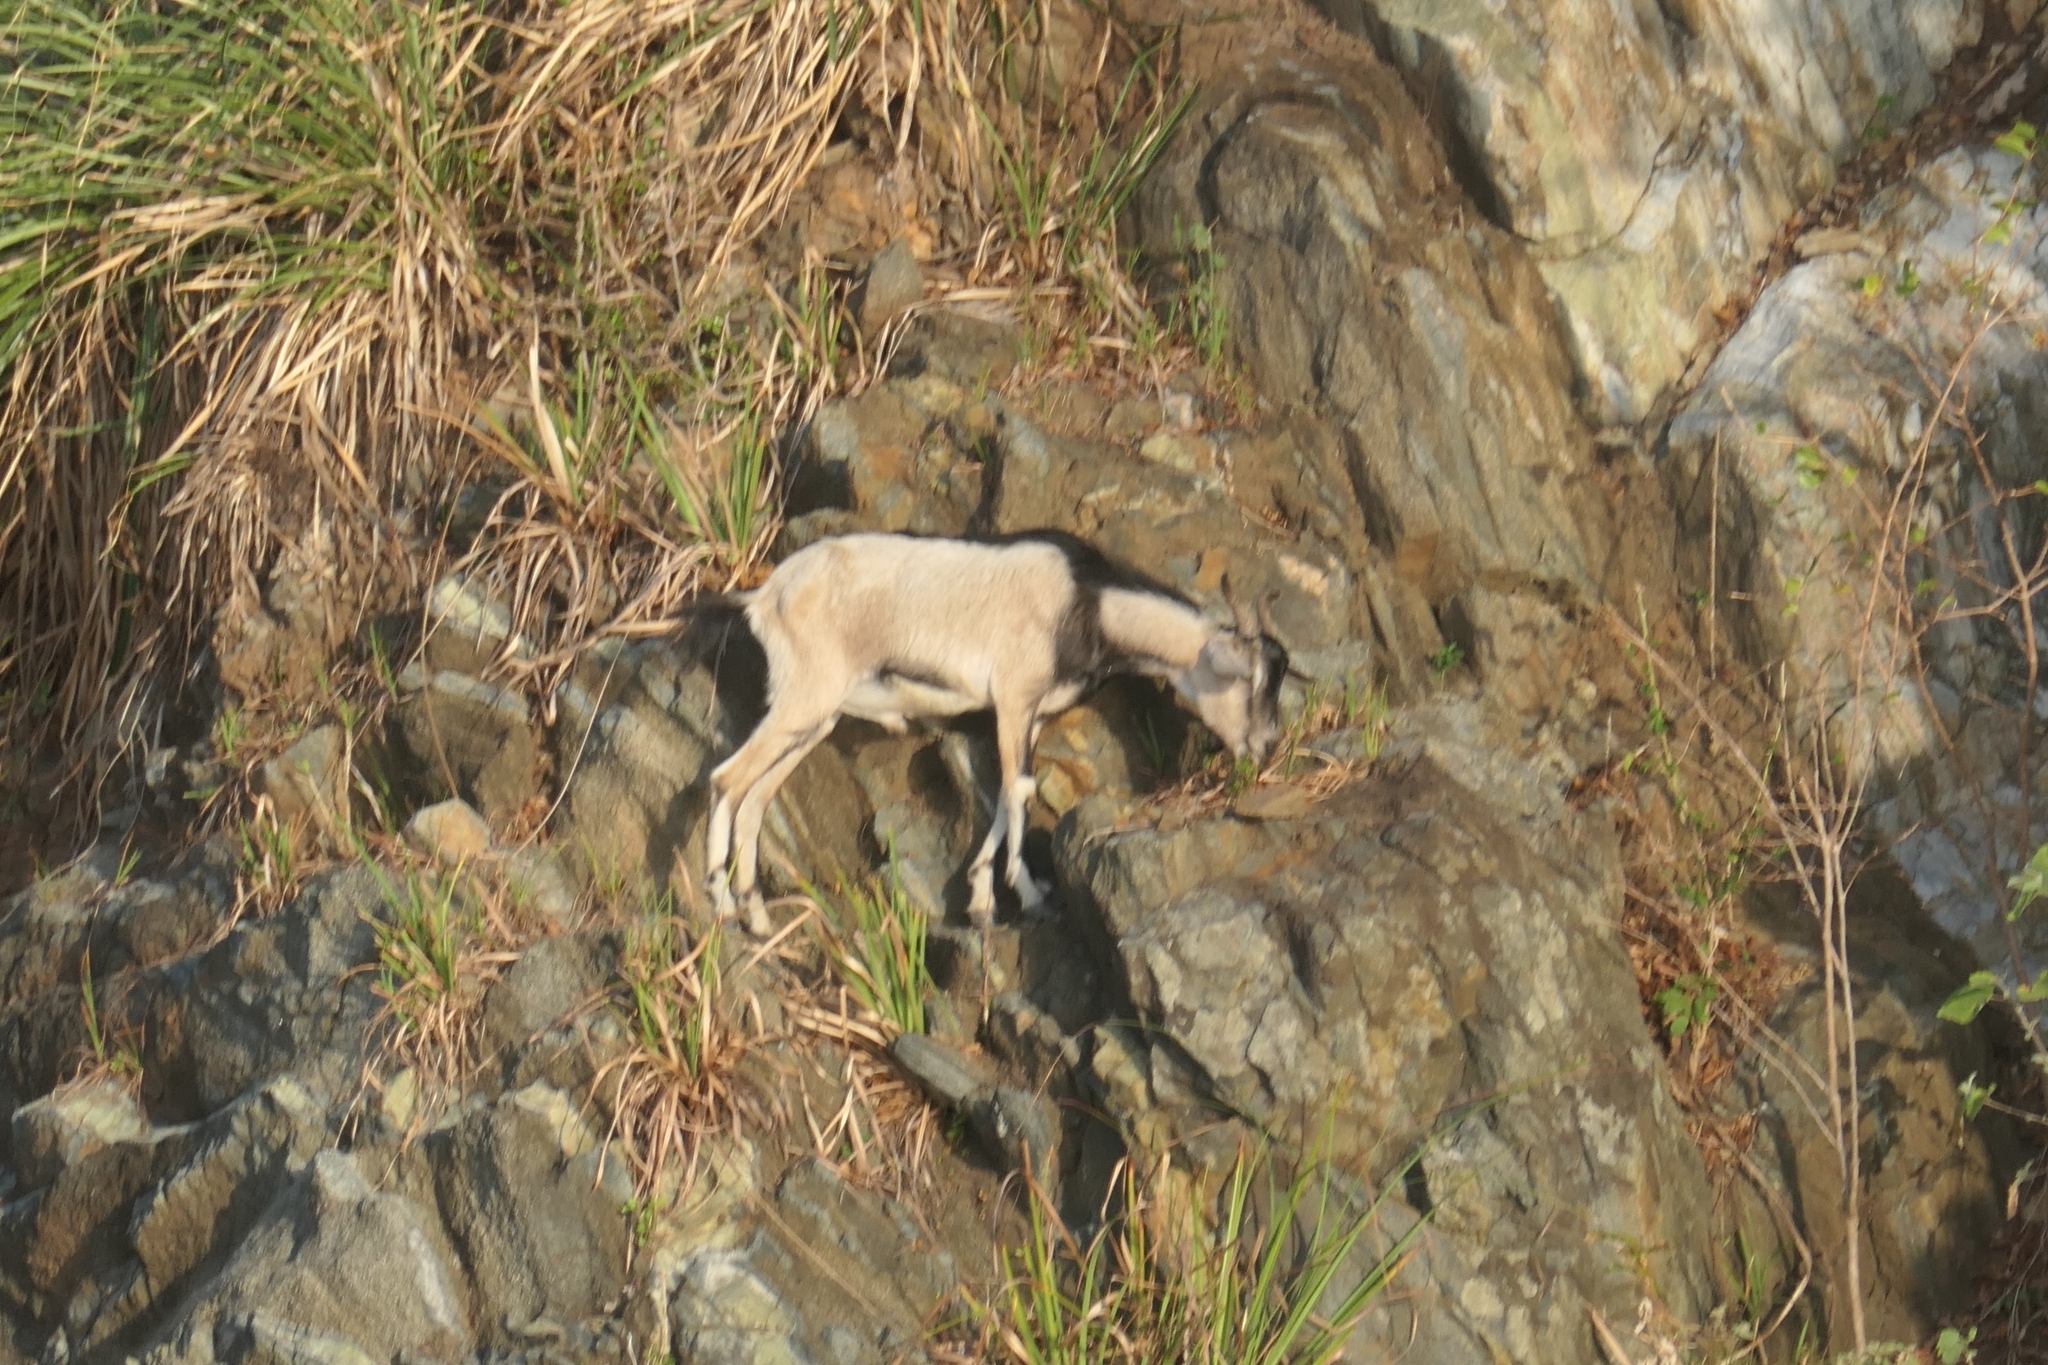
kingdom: Animalia
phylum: Chordata
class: Mammalia
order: Artiodactyla
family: Bovidae
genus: Capra
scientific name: Capra hircus
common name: Domestic goat
